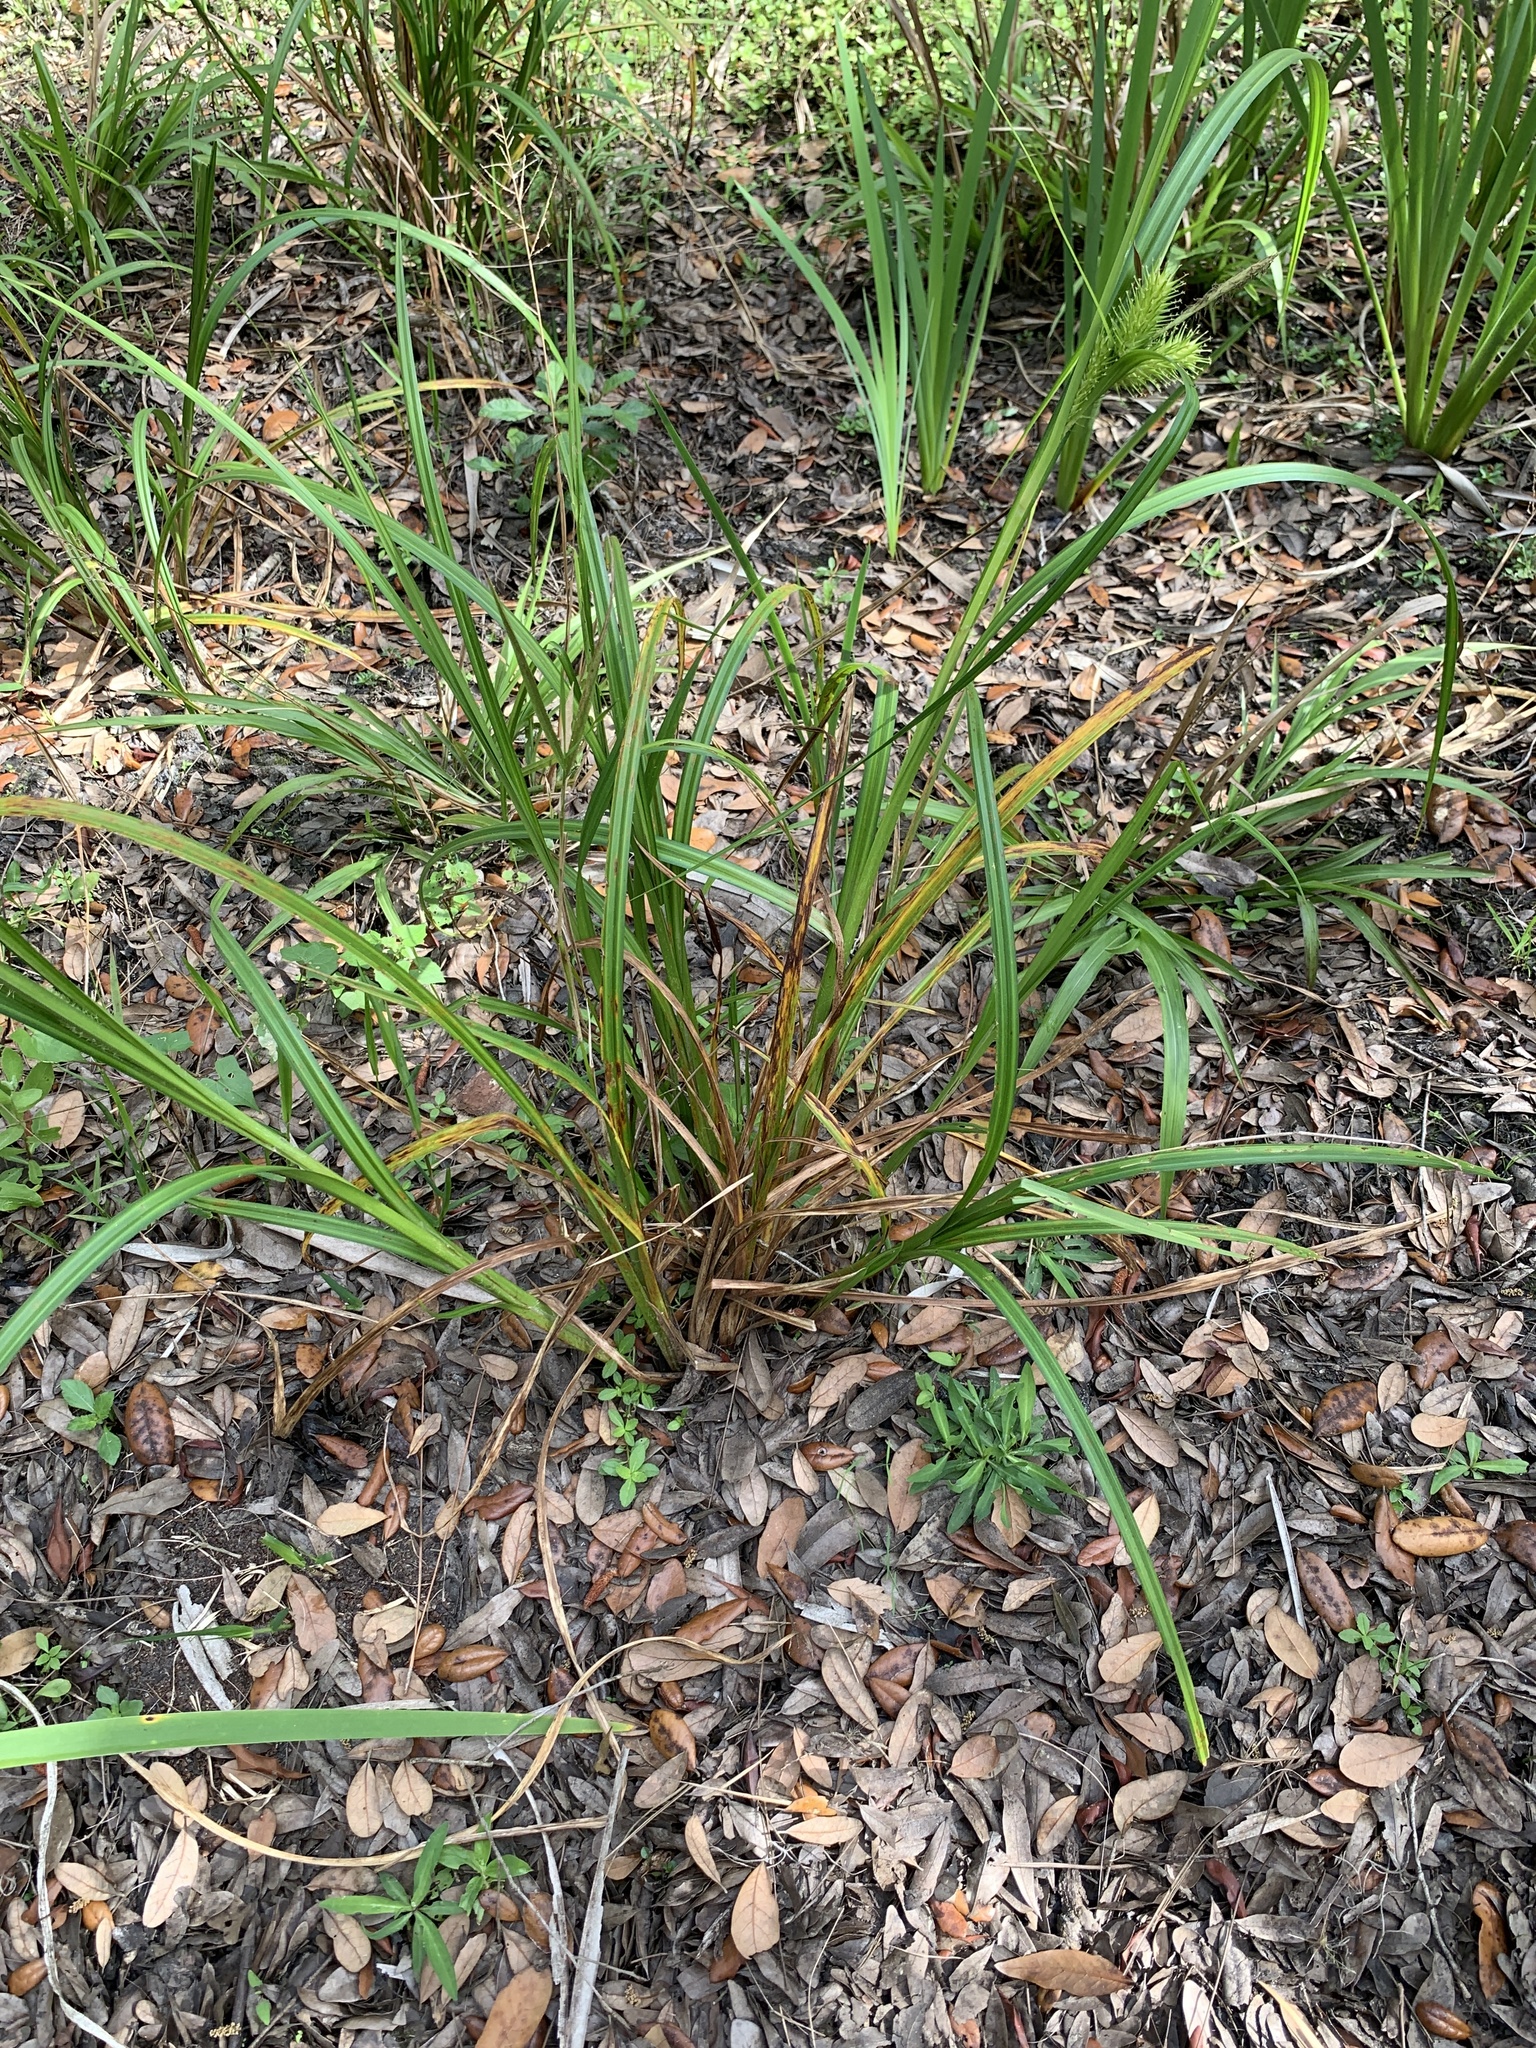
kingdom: Plantae
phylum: Tracheophyta
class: Liliopsida
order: Poales
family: Cyperaceae
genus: Carex
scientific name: Carex lupuliformis
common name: False hop sedge
